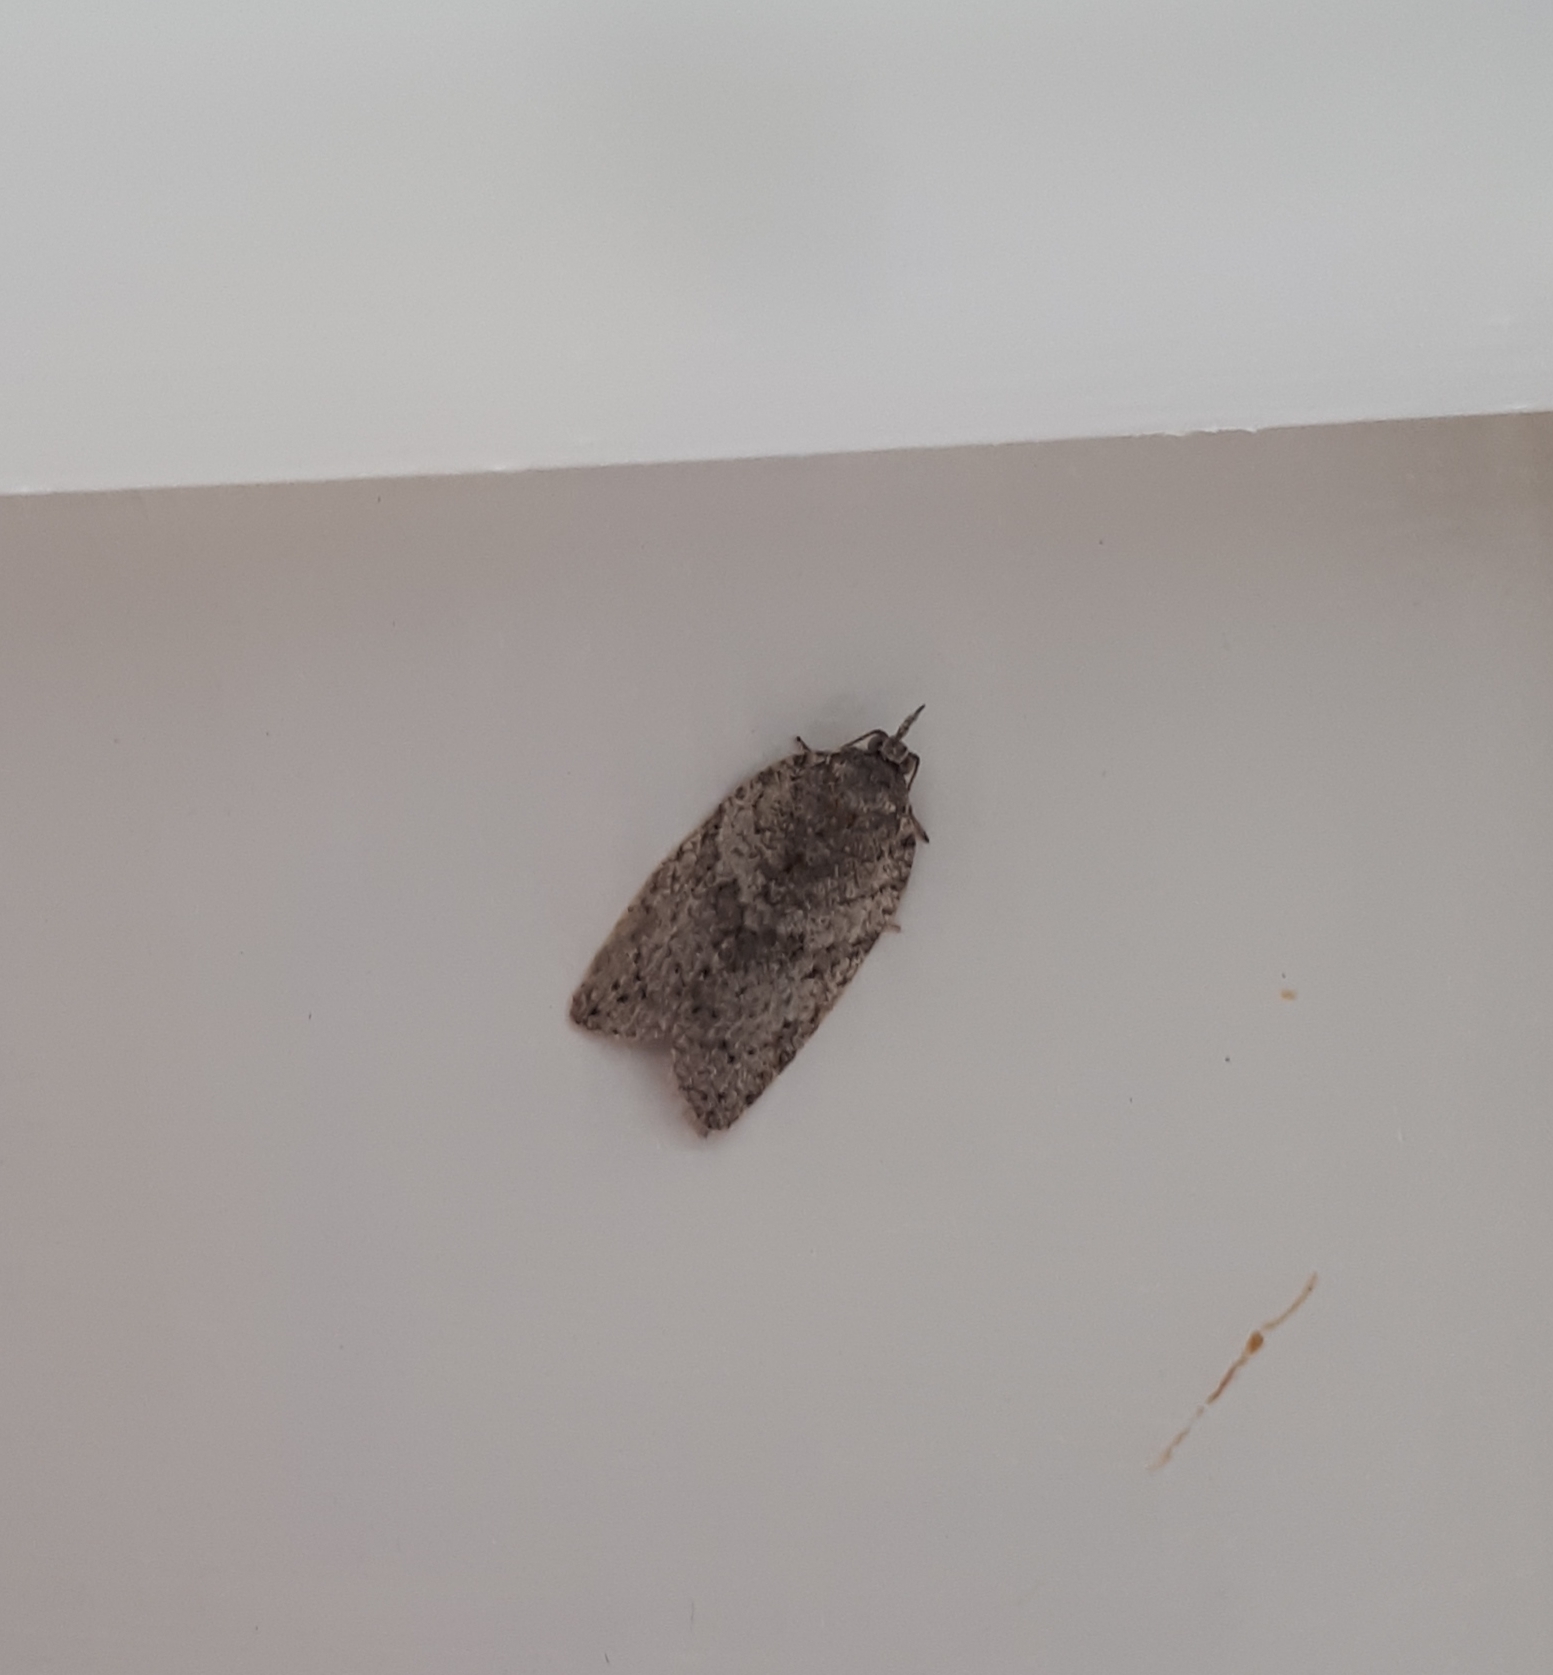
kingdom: Animalia
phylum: Arthropoda
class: Insecta
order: Lepidoptera
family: Tortricidae
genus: Isotenes
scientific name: Isotenes miserana
